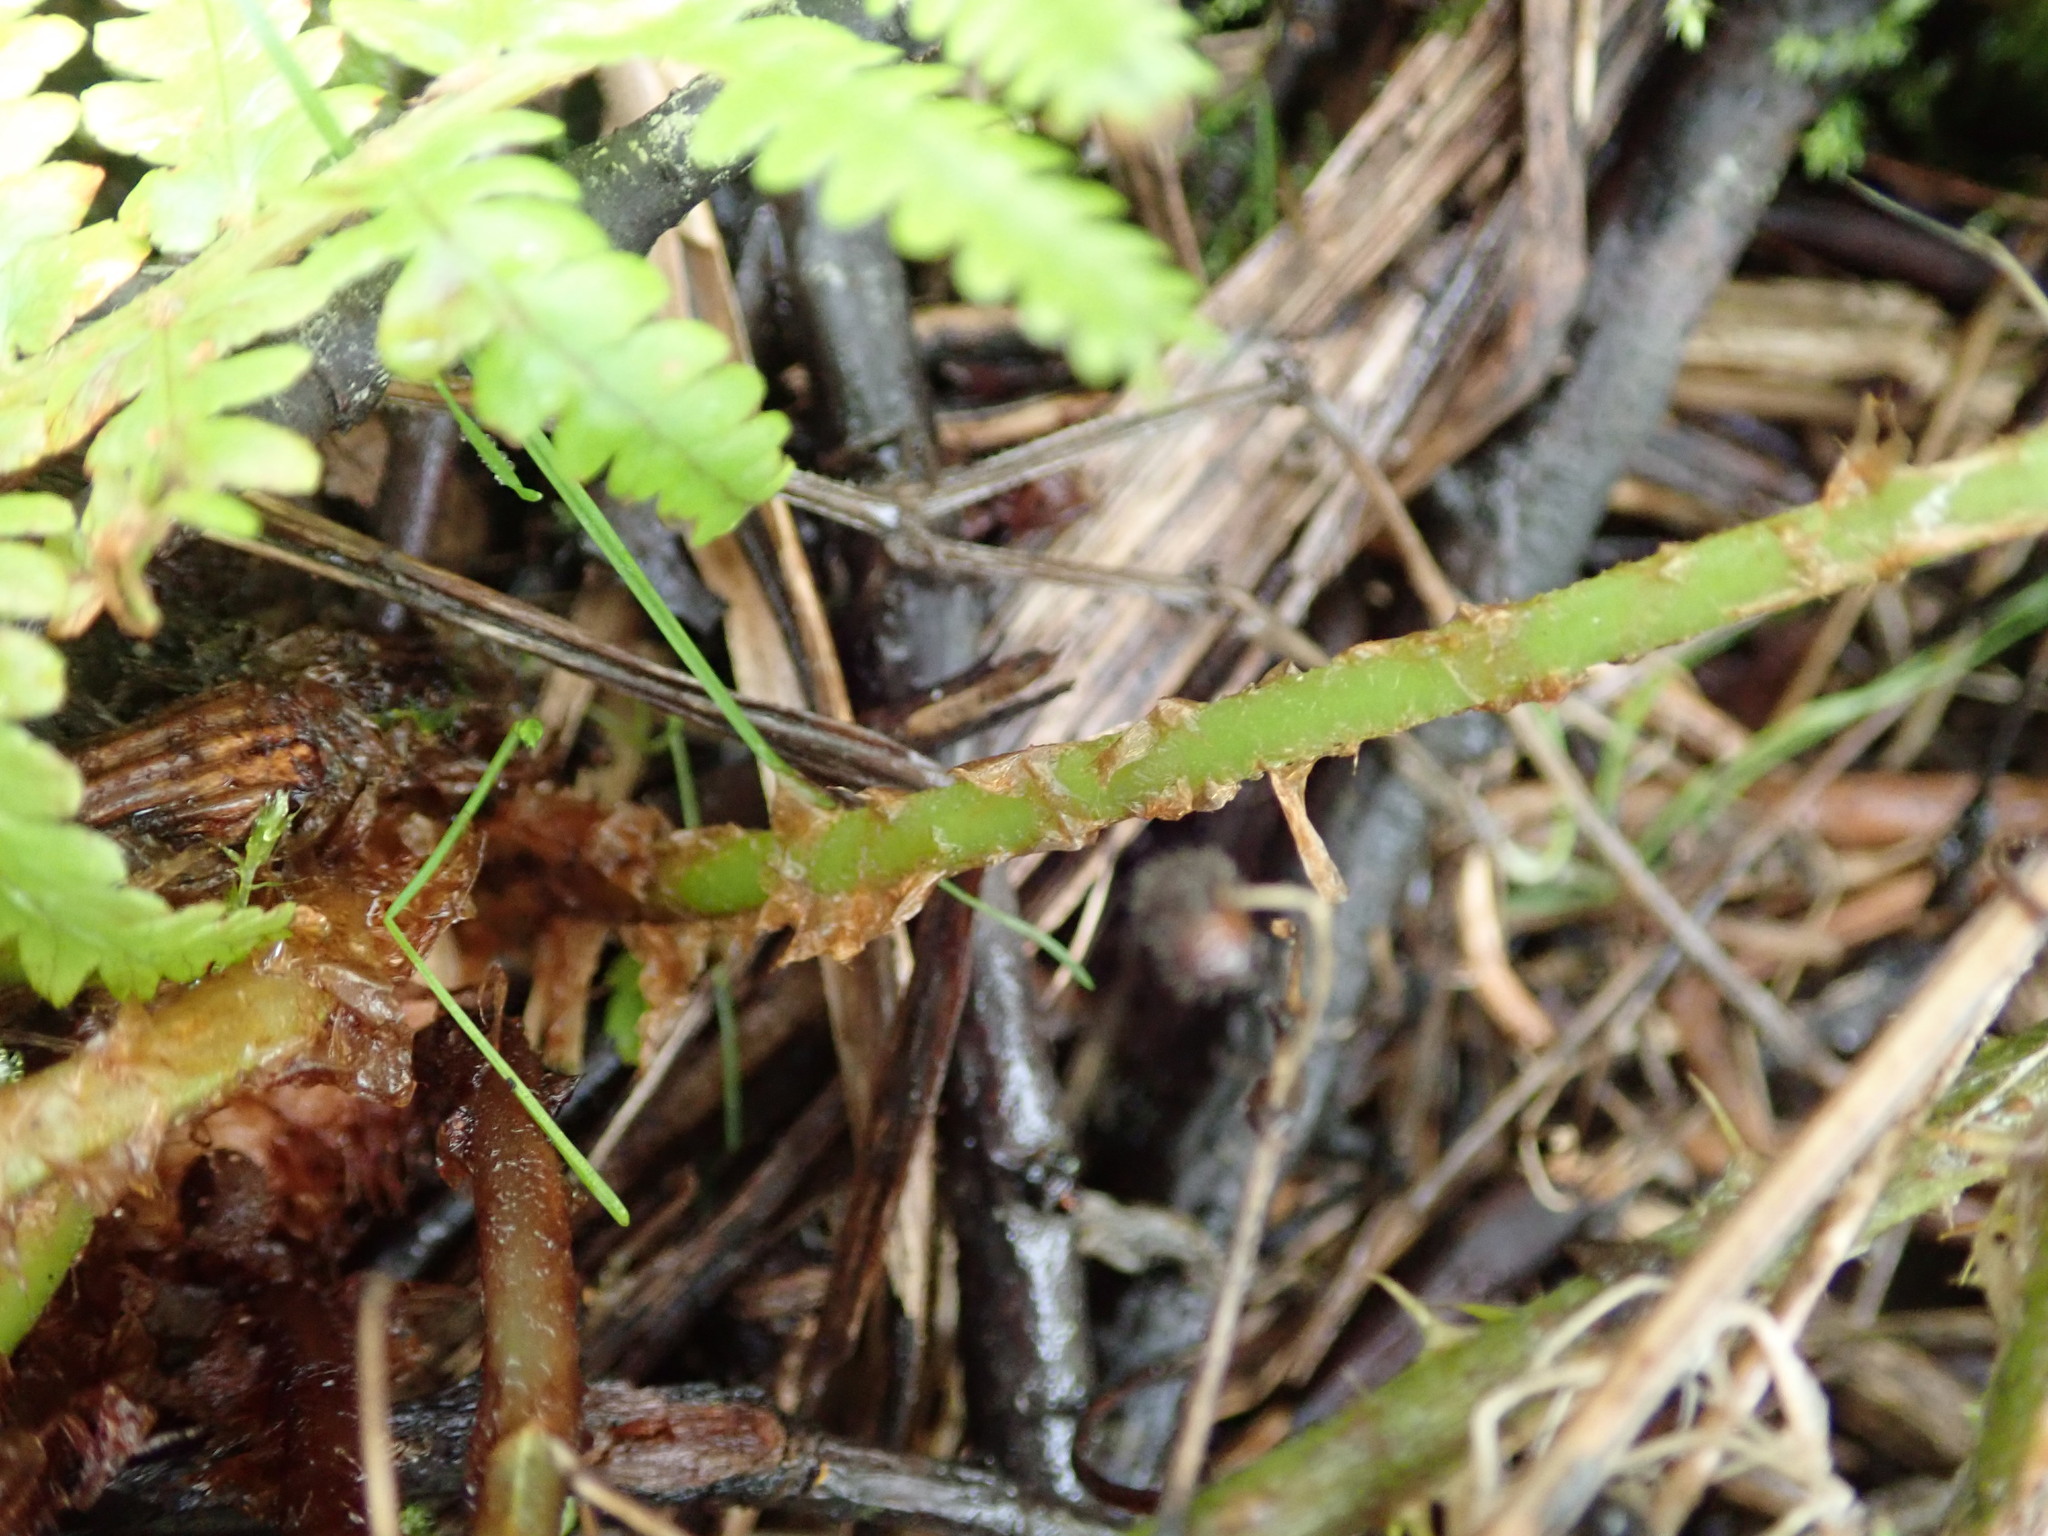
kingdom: Plantae
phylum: Tracheophyta
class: Polypodiopsida
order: Polypodiales
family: Dryopteridaceae
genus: Dryopteris
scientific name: Dryopteris filix-mas
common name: Male fern
